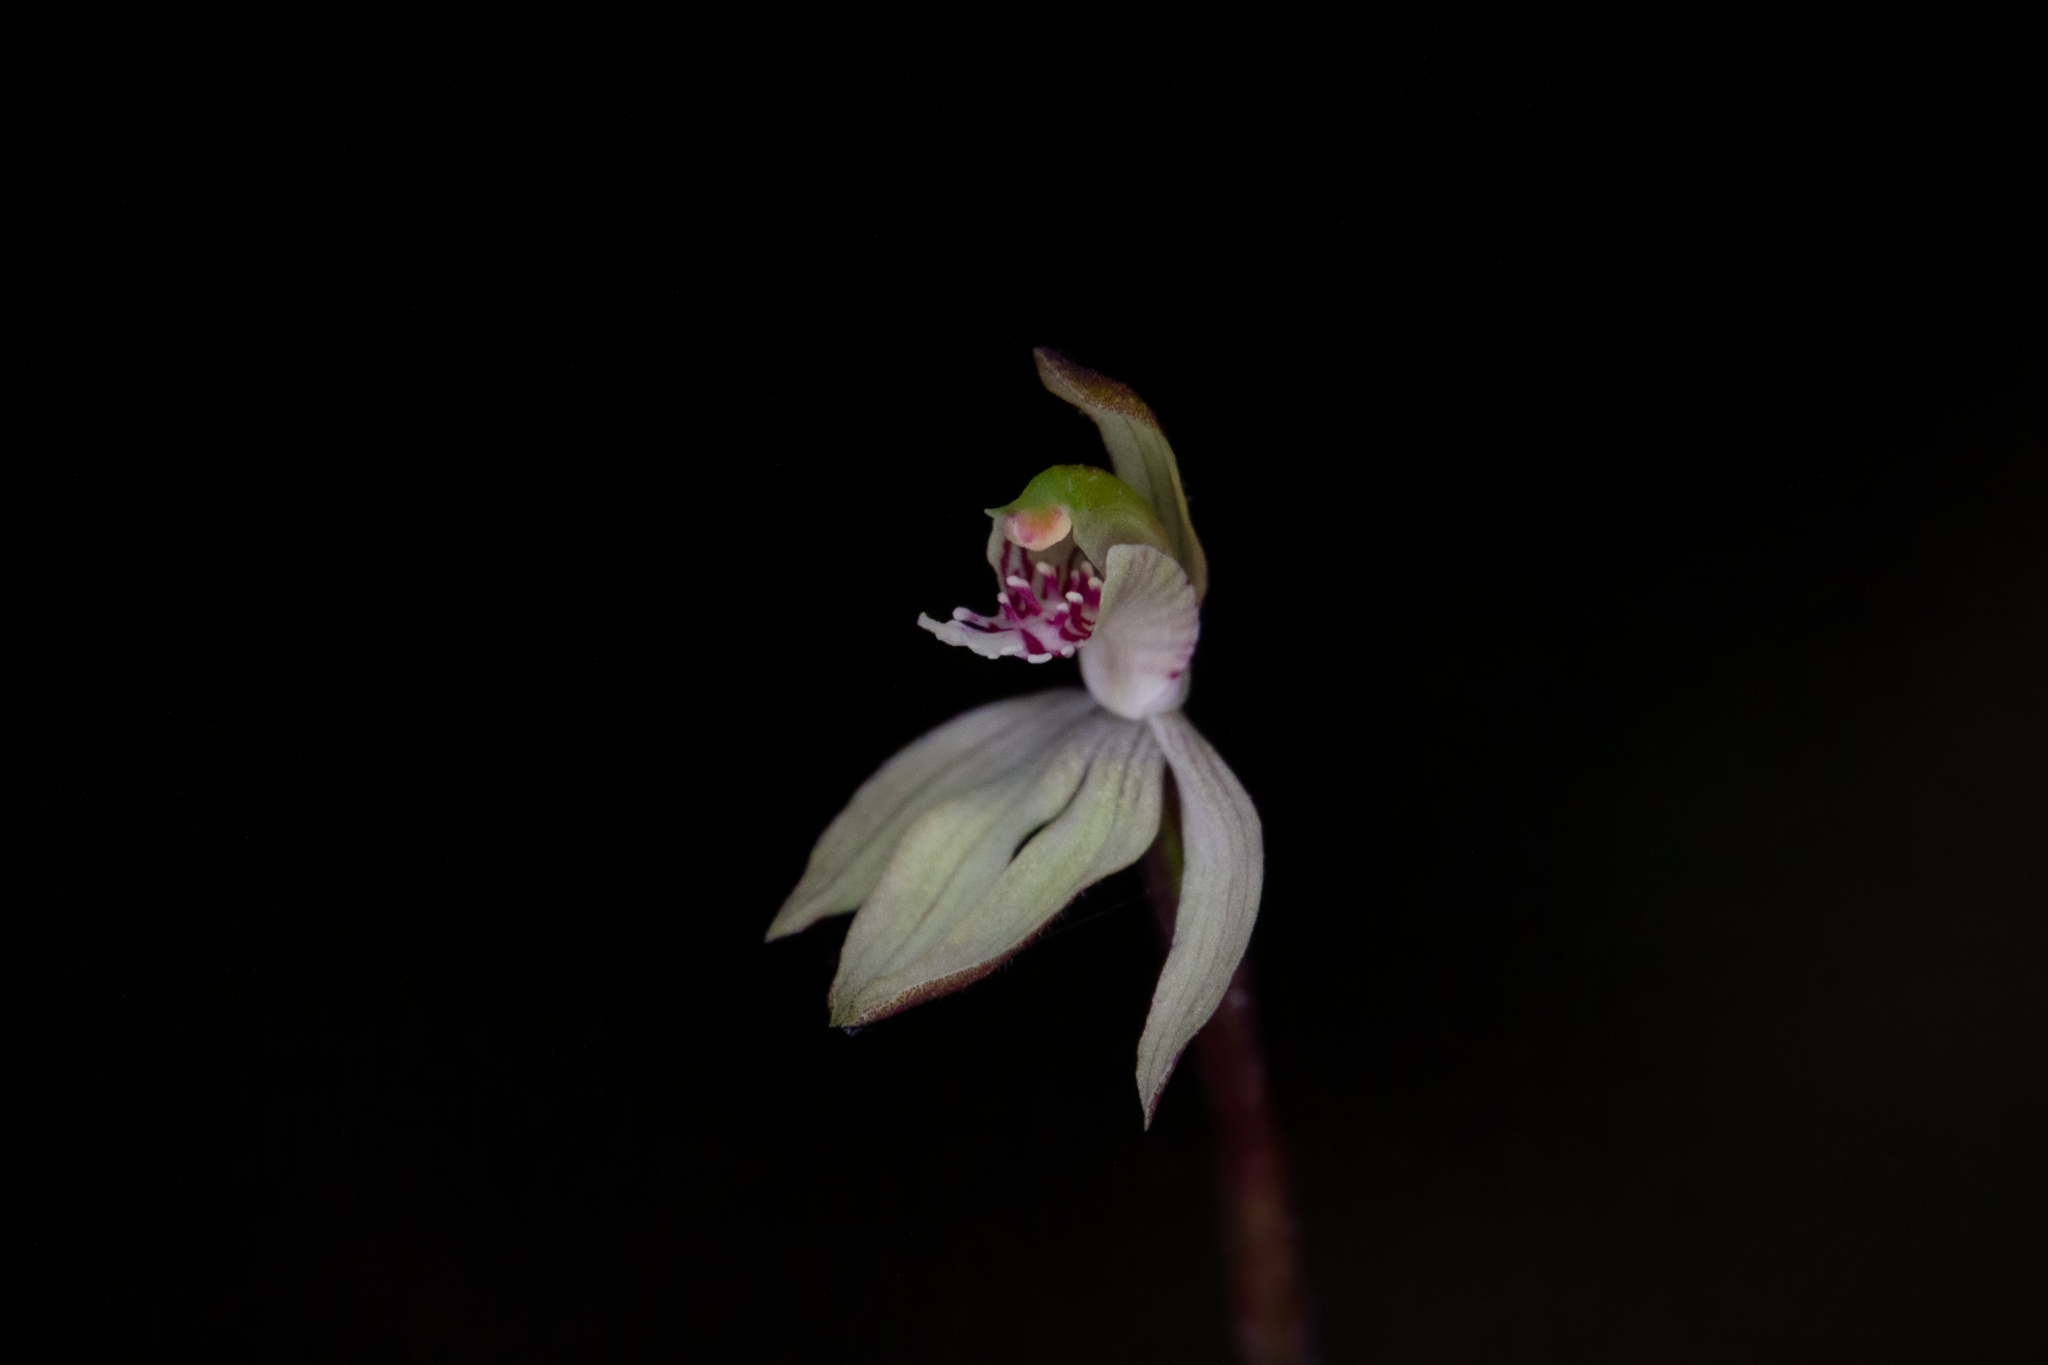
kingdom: Plantae
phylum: Tracheophyta
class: Liliopsida
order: Asparagales
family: Orchidaceae
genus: Caladenia
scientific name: Caladenia chlorostyla
